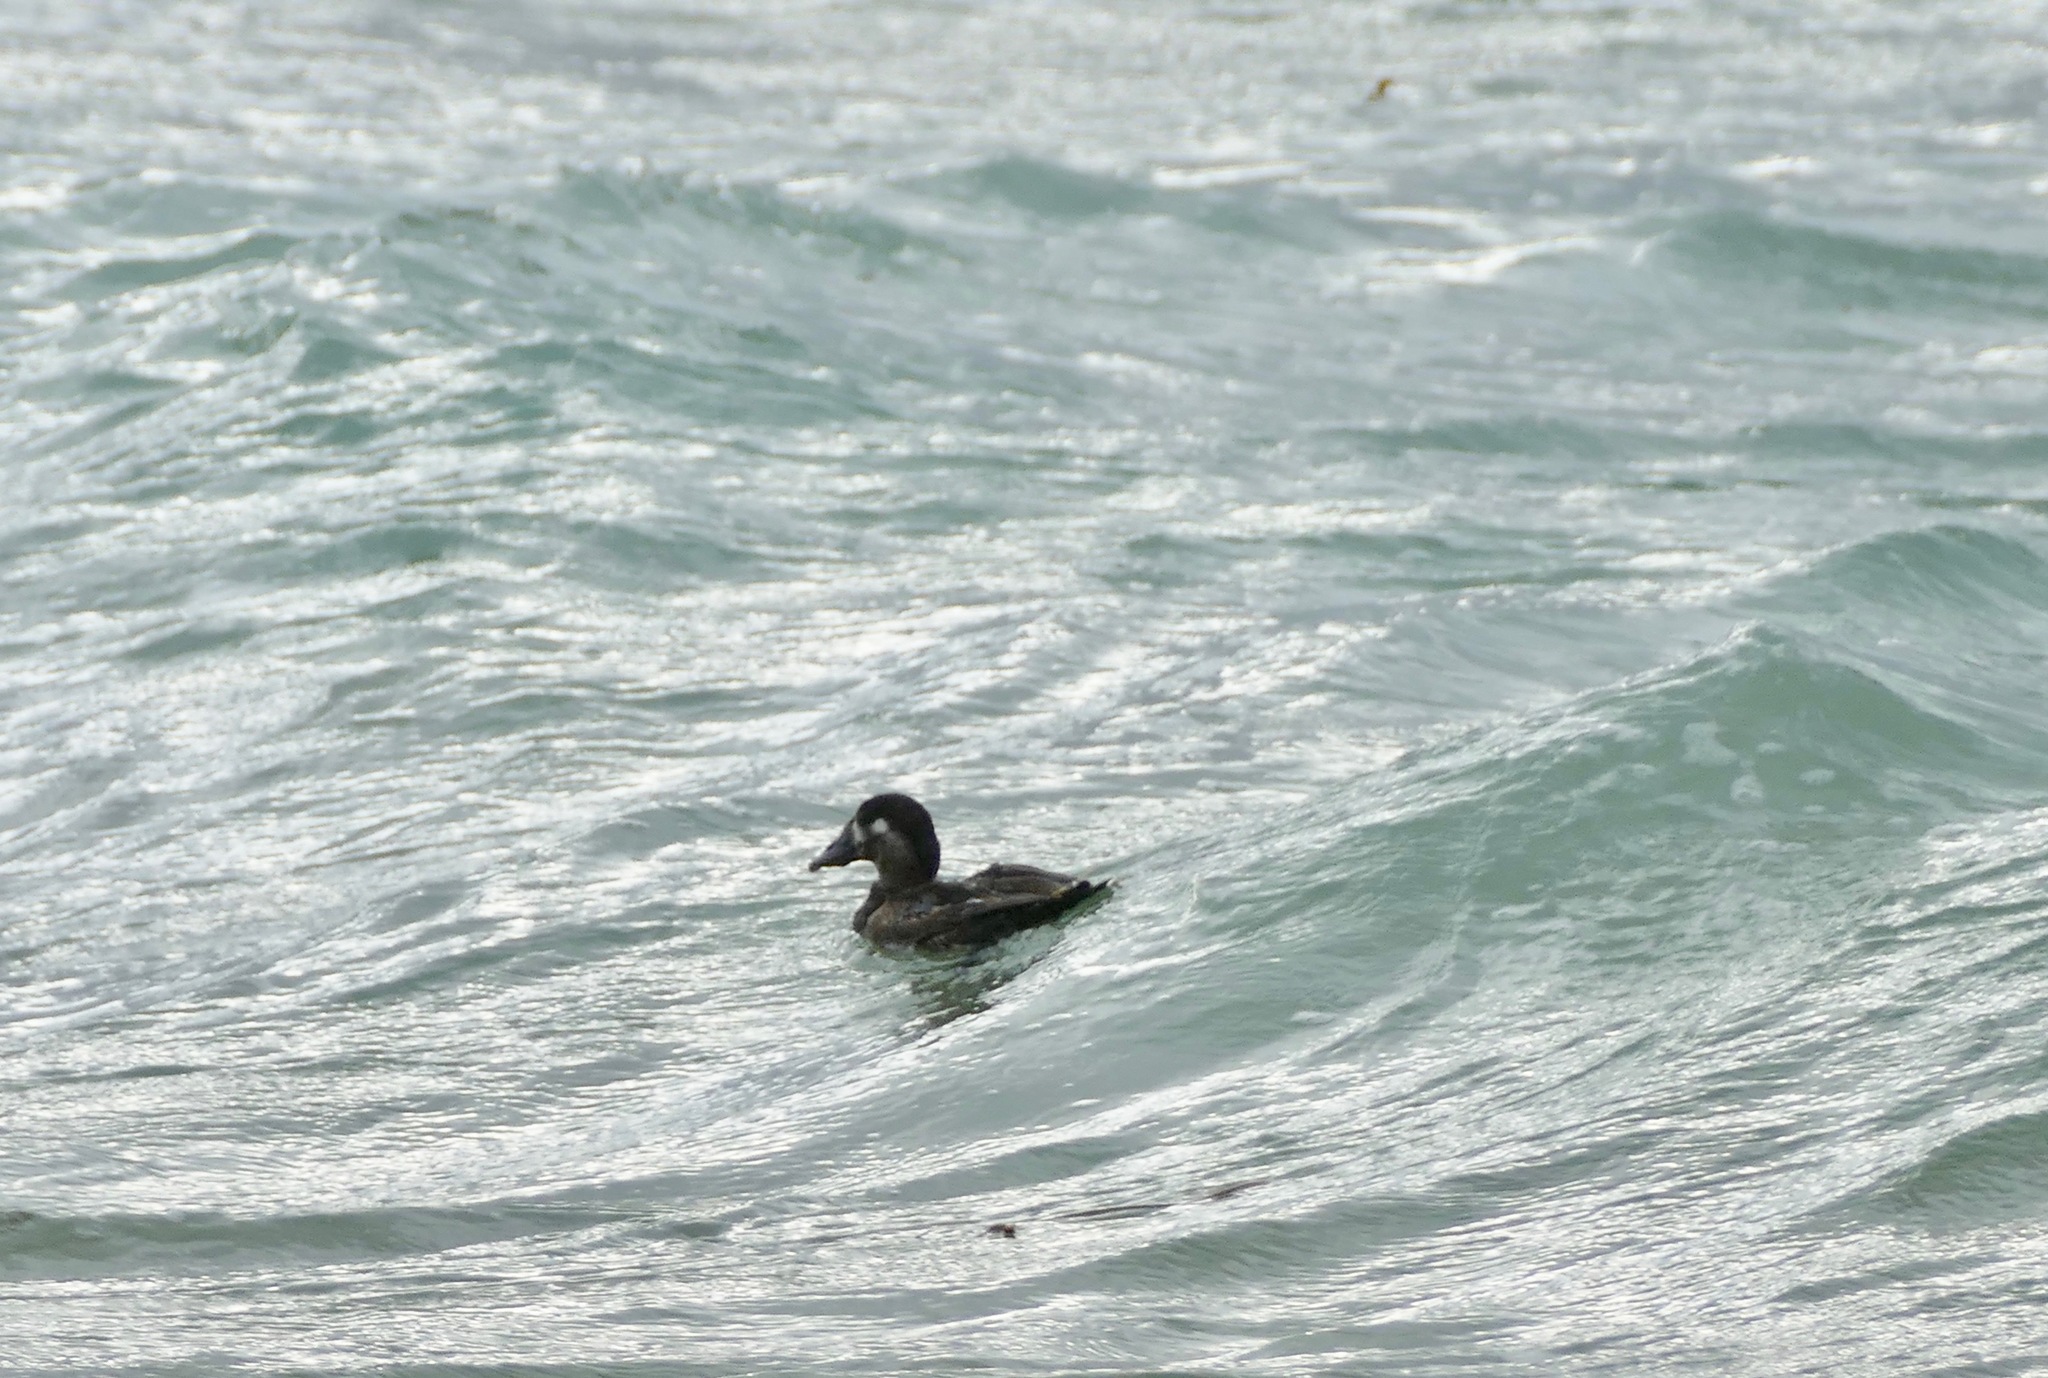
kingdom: Animalia
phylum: Chordata
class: Aves
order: Anseriformes
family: Anatidae
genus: Melanitta
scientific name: Melanitta perspicillata
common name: Surf scoter
